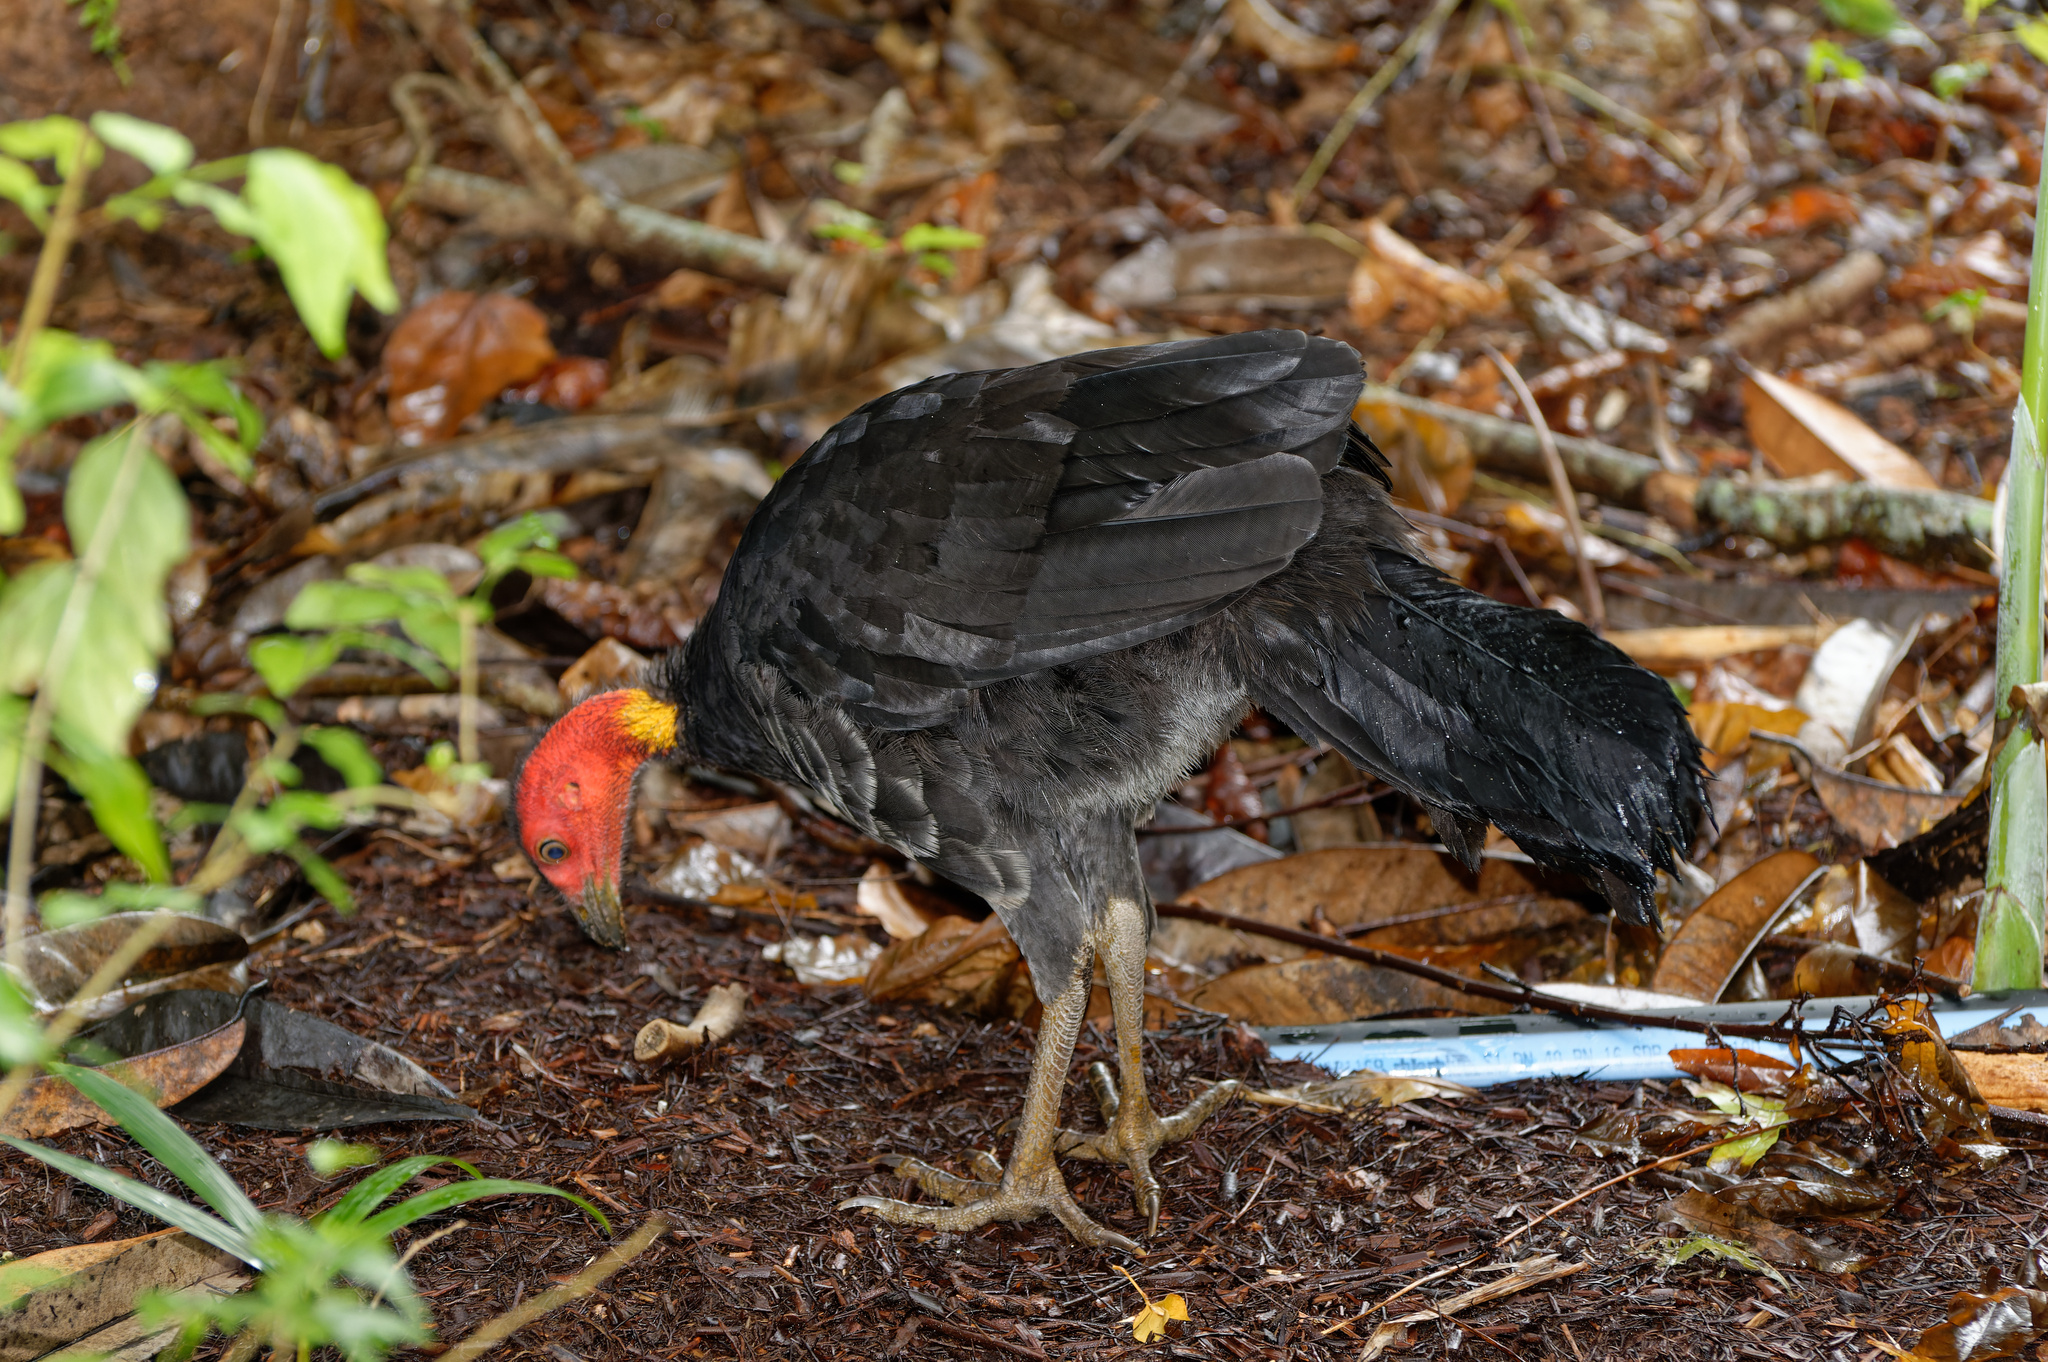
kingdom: Animalia
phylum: Chordata
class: Aves
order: Galliformes
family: Megapodiidae
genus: Alectura
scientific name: Alectura lathami
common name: Australian brushturkey
